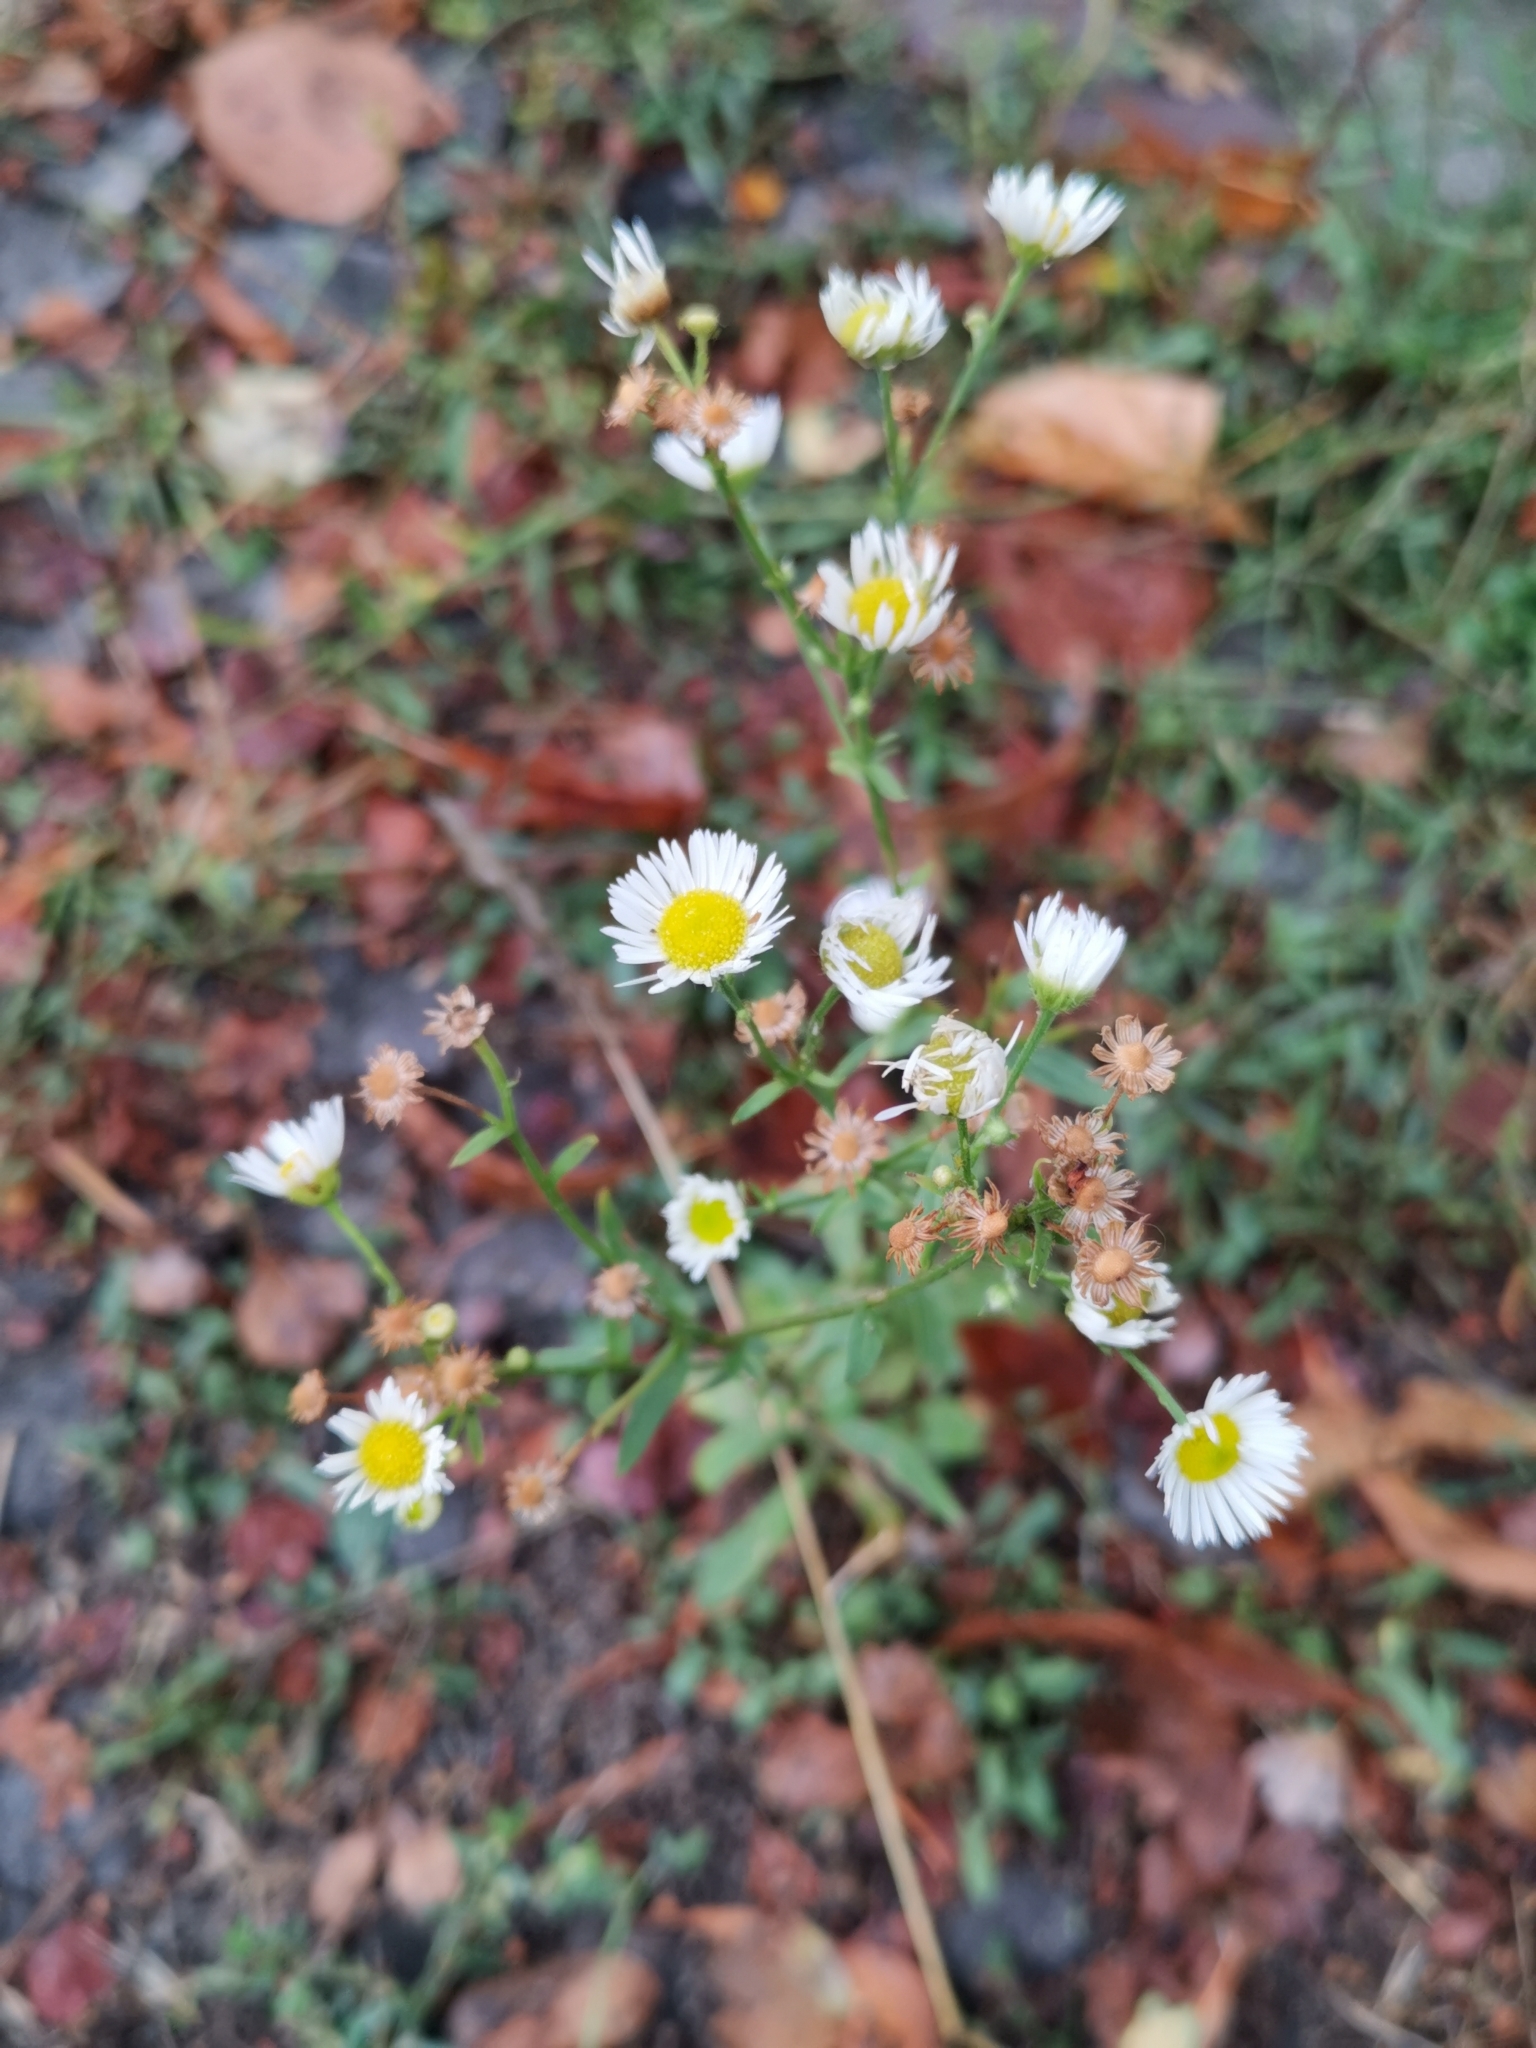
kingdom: Plantae
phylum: Tracheophyta
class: Magnoliopsida
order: Asterales
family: Asteraceae
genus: Erigeron
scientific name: Erigeron annuus
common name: Tall fleabane
